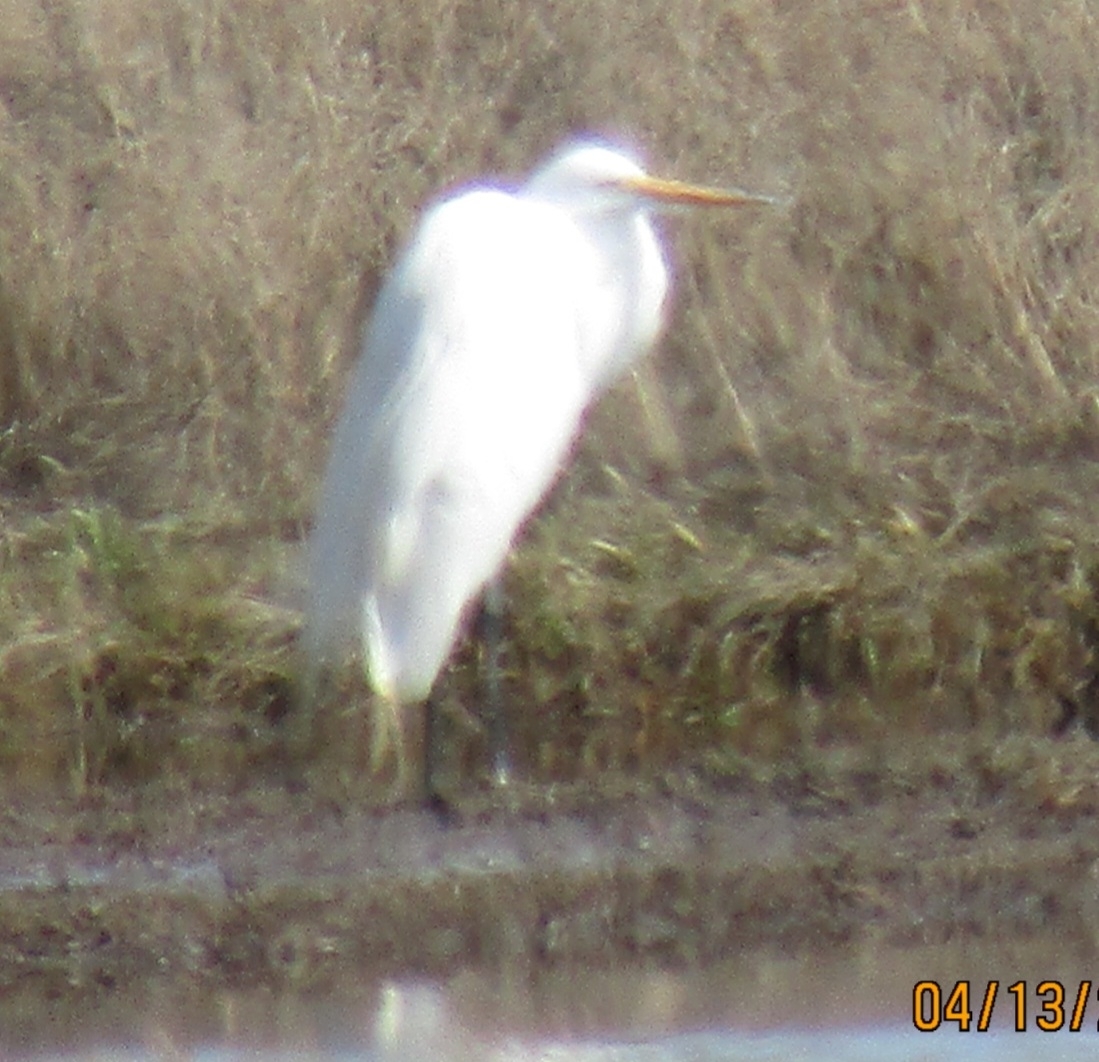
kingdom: Animalia
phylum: Chordata
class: Aves
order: Pelecaniformes
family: Ardeidae
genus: Ardea
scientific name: Ardea alba
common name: Great egret
